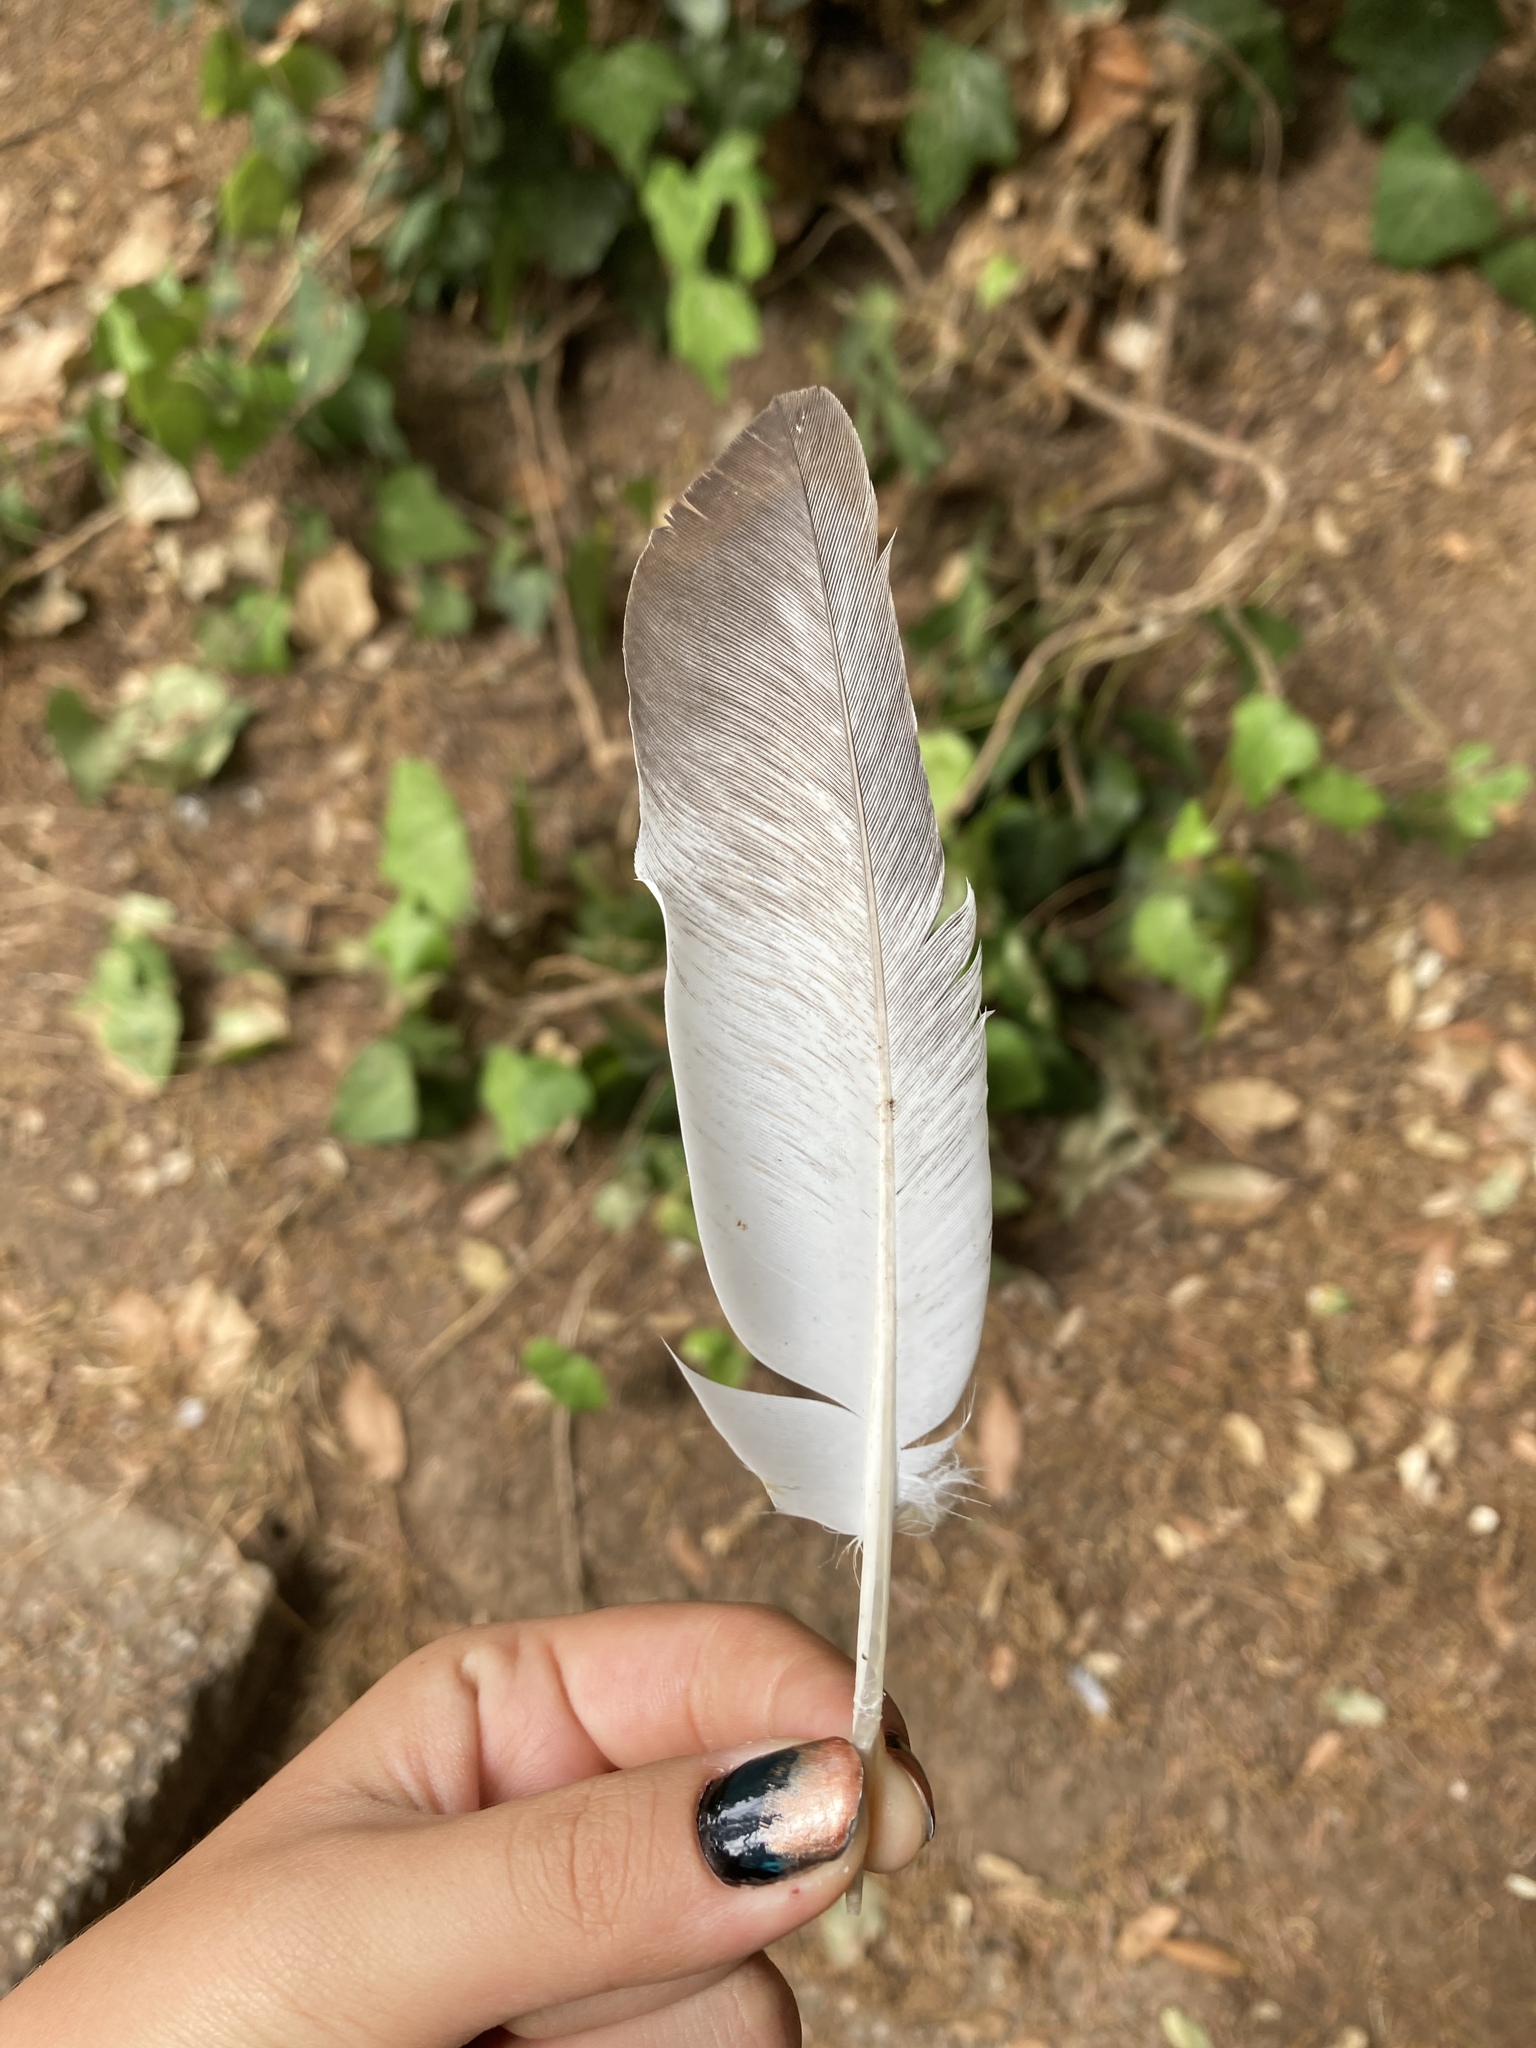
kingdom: Animalia
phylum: Chordata
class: Aves
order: Columbiformes
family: Columbidae
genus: Columba
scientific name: Columba livia
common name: Rock pigeon
